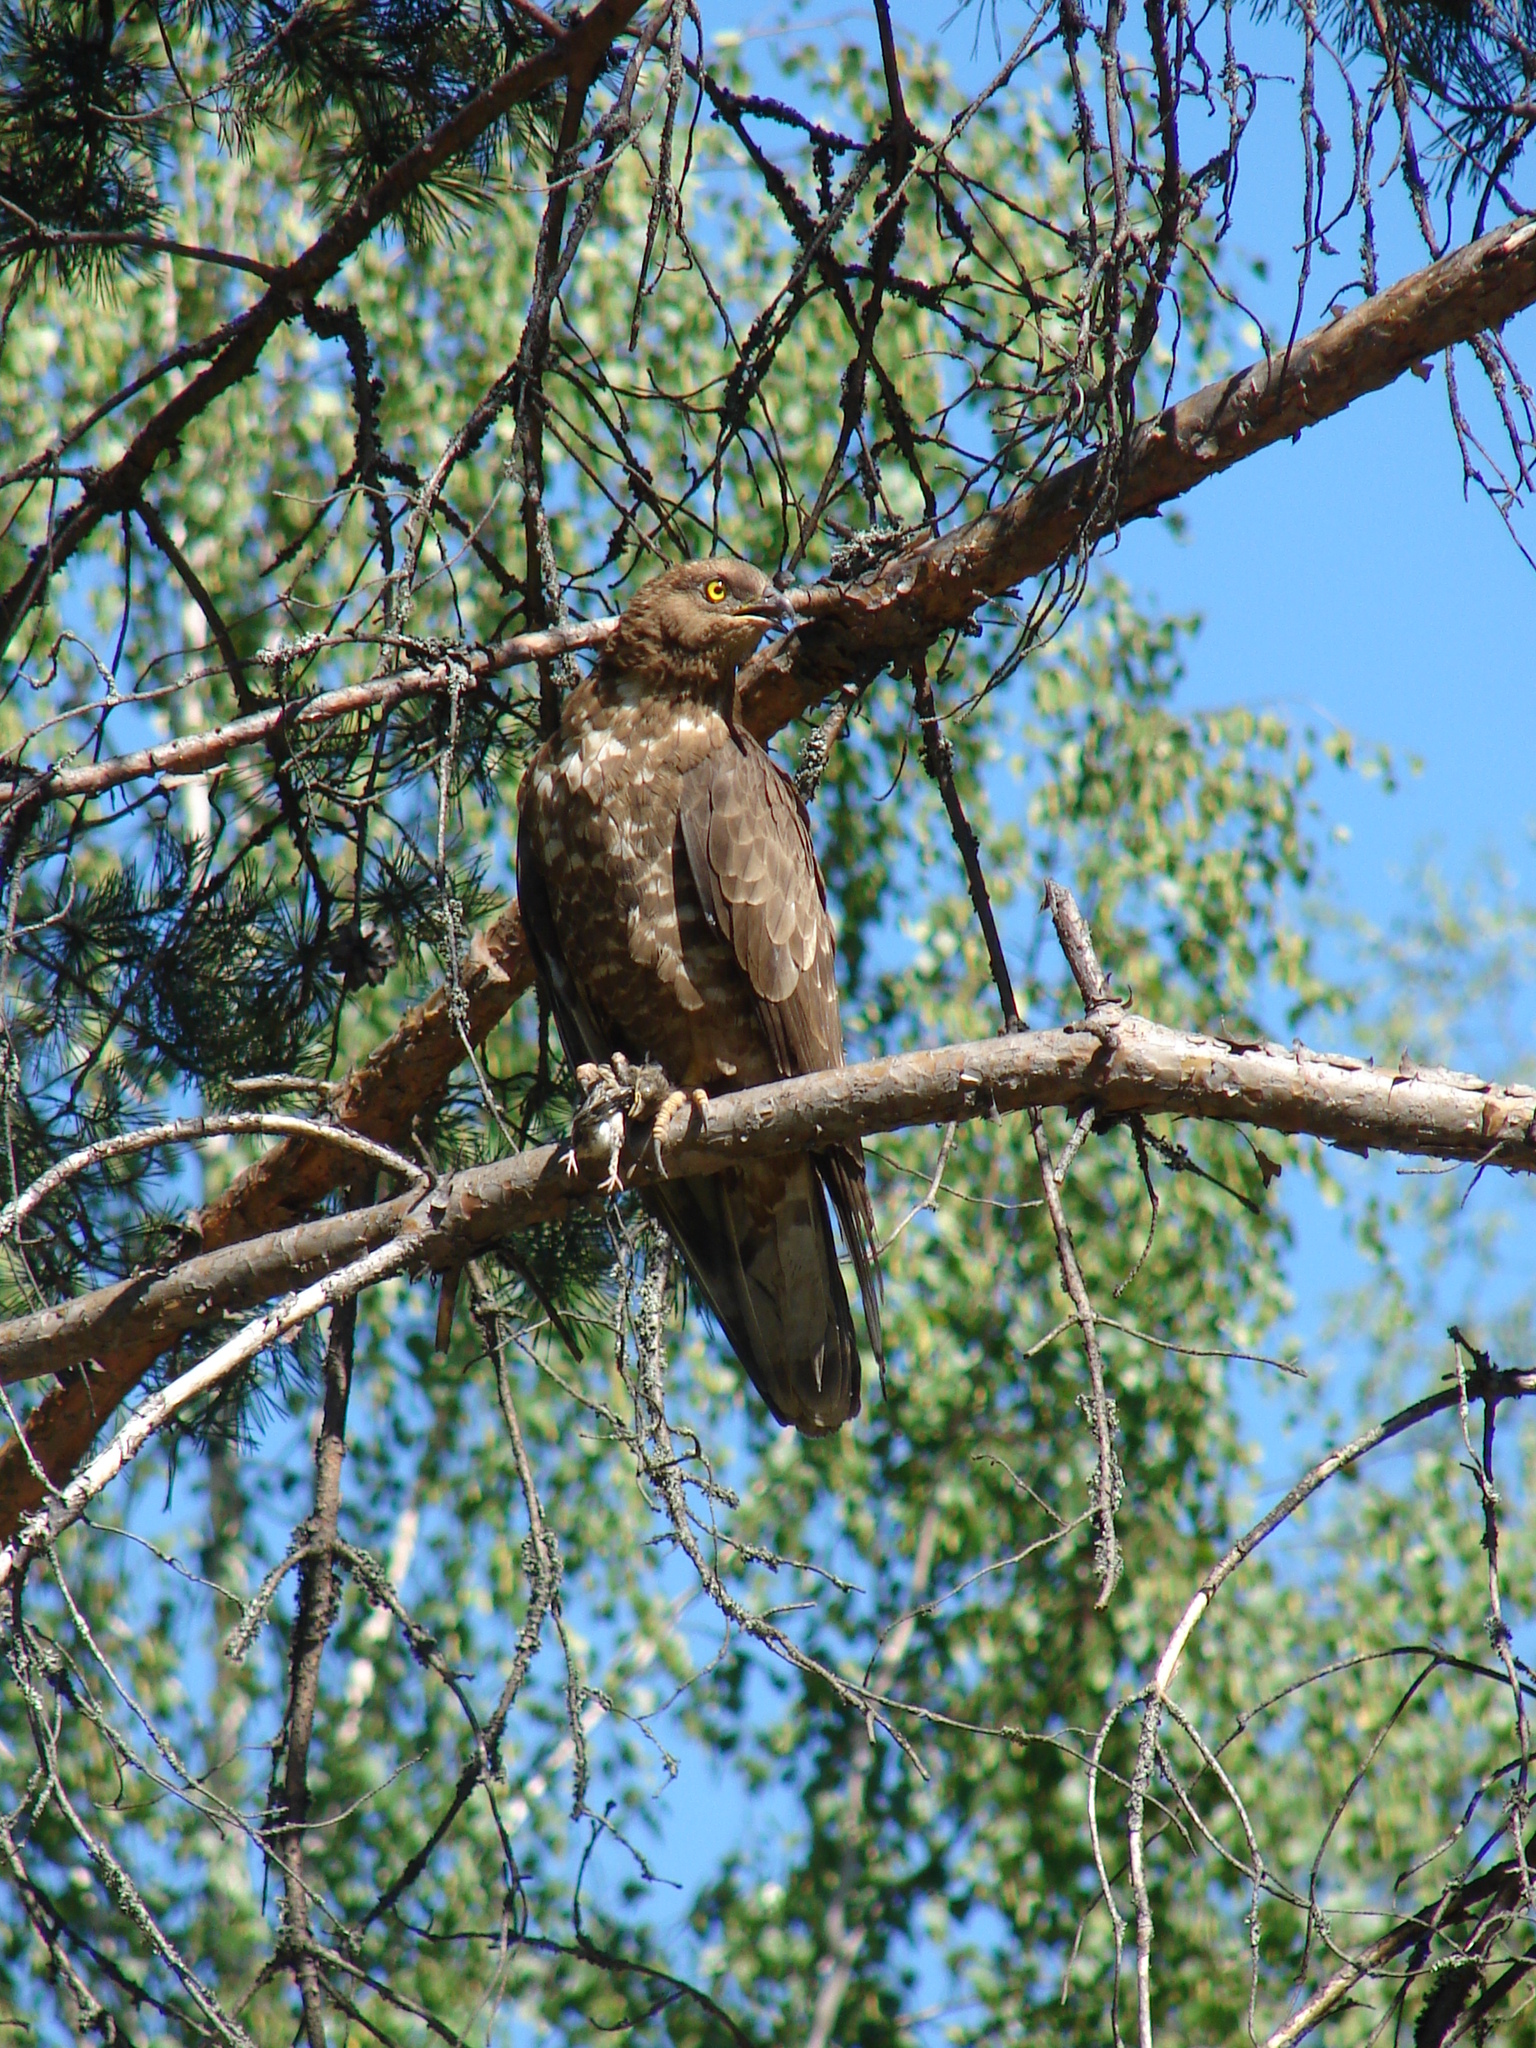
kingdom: Animalia
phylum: Chordata
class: Aves
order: Accipitriformes
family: Accipitridae
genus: Pernis
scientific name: Pernis apivorus
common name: European honey buzzard
